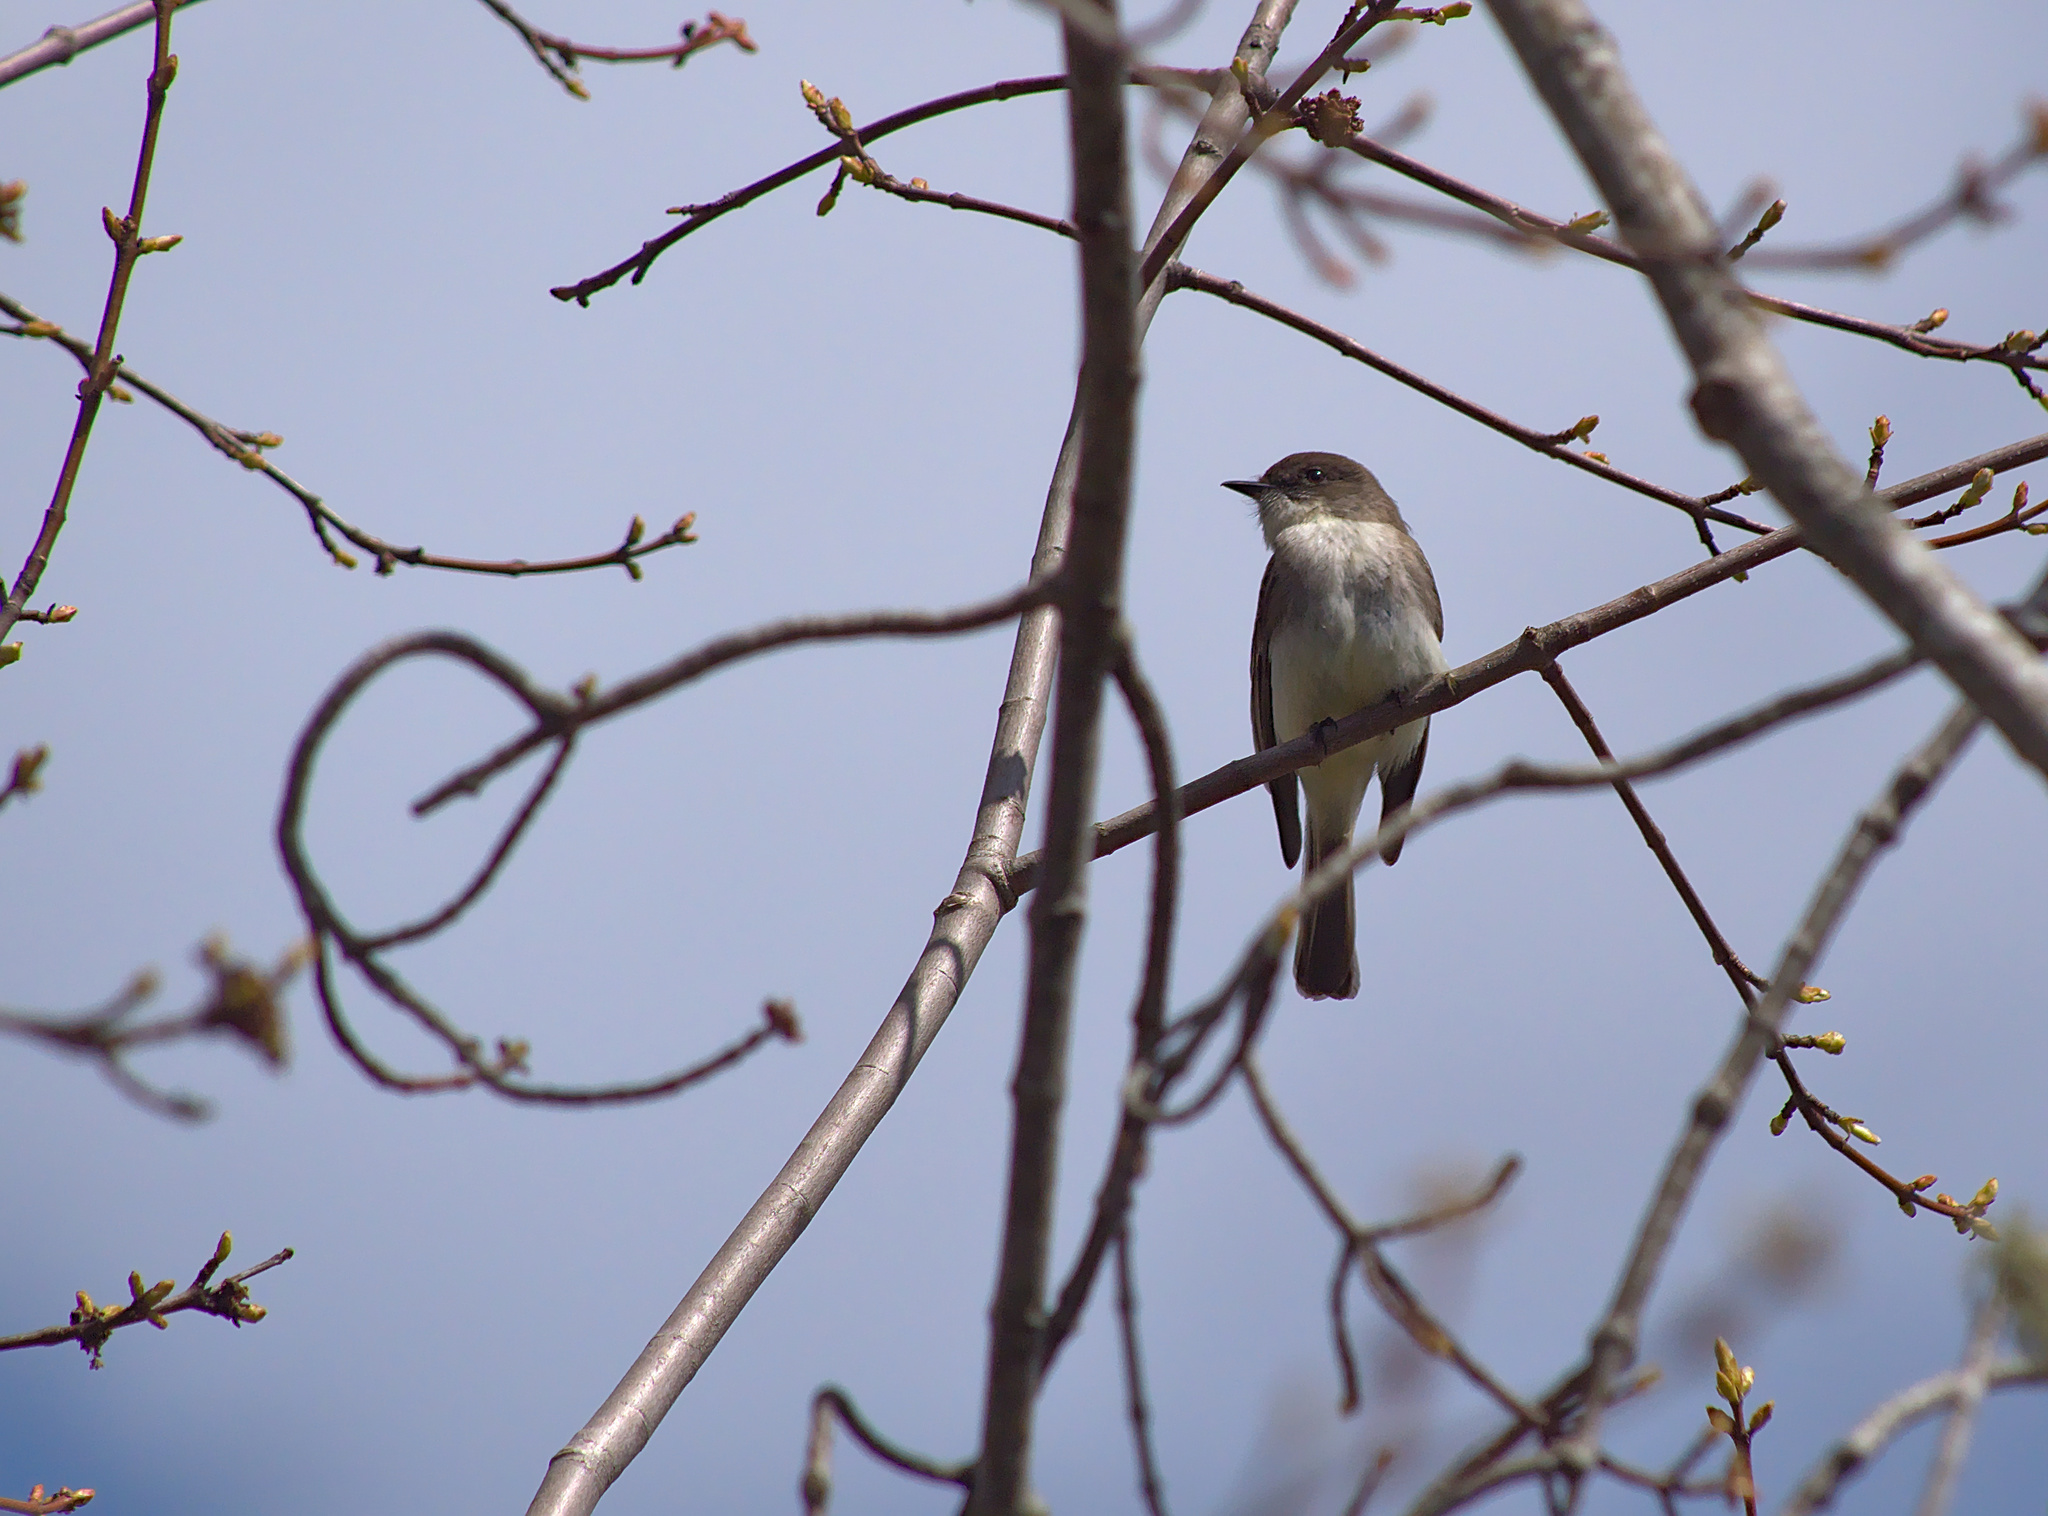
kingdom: Animalia
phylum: Chordata
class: Aves
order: Passeriformes
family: Tyrannidae
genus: Sayornis
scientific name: Sayornis phoebe
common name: Eastern phoebe
